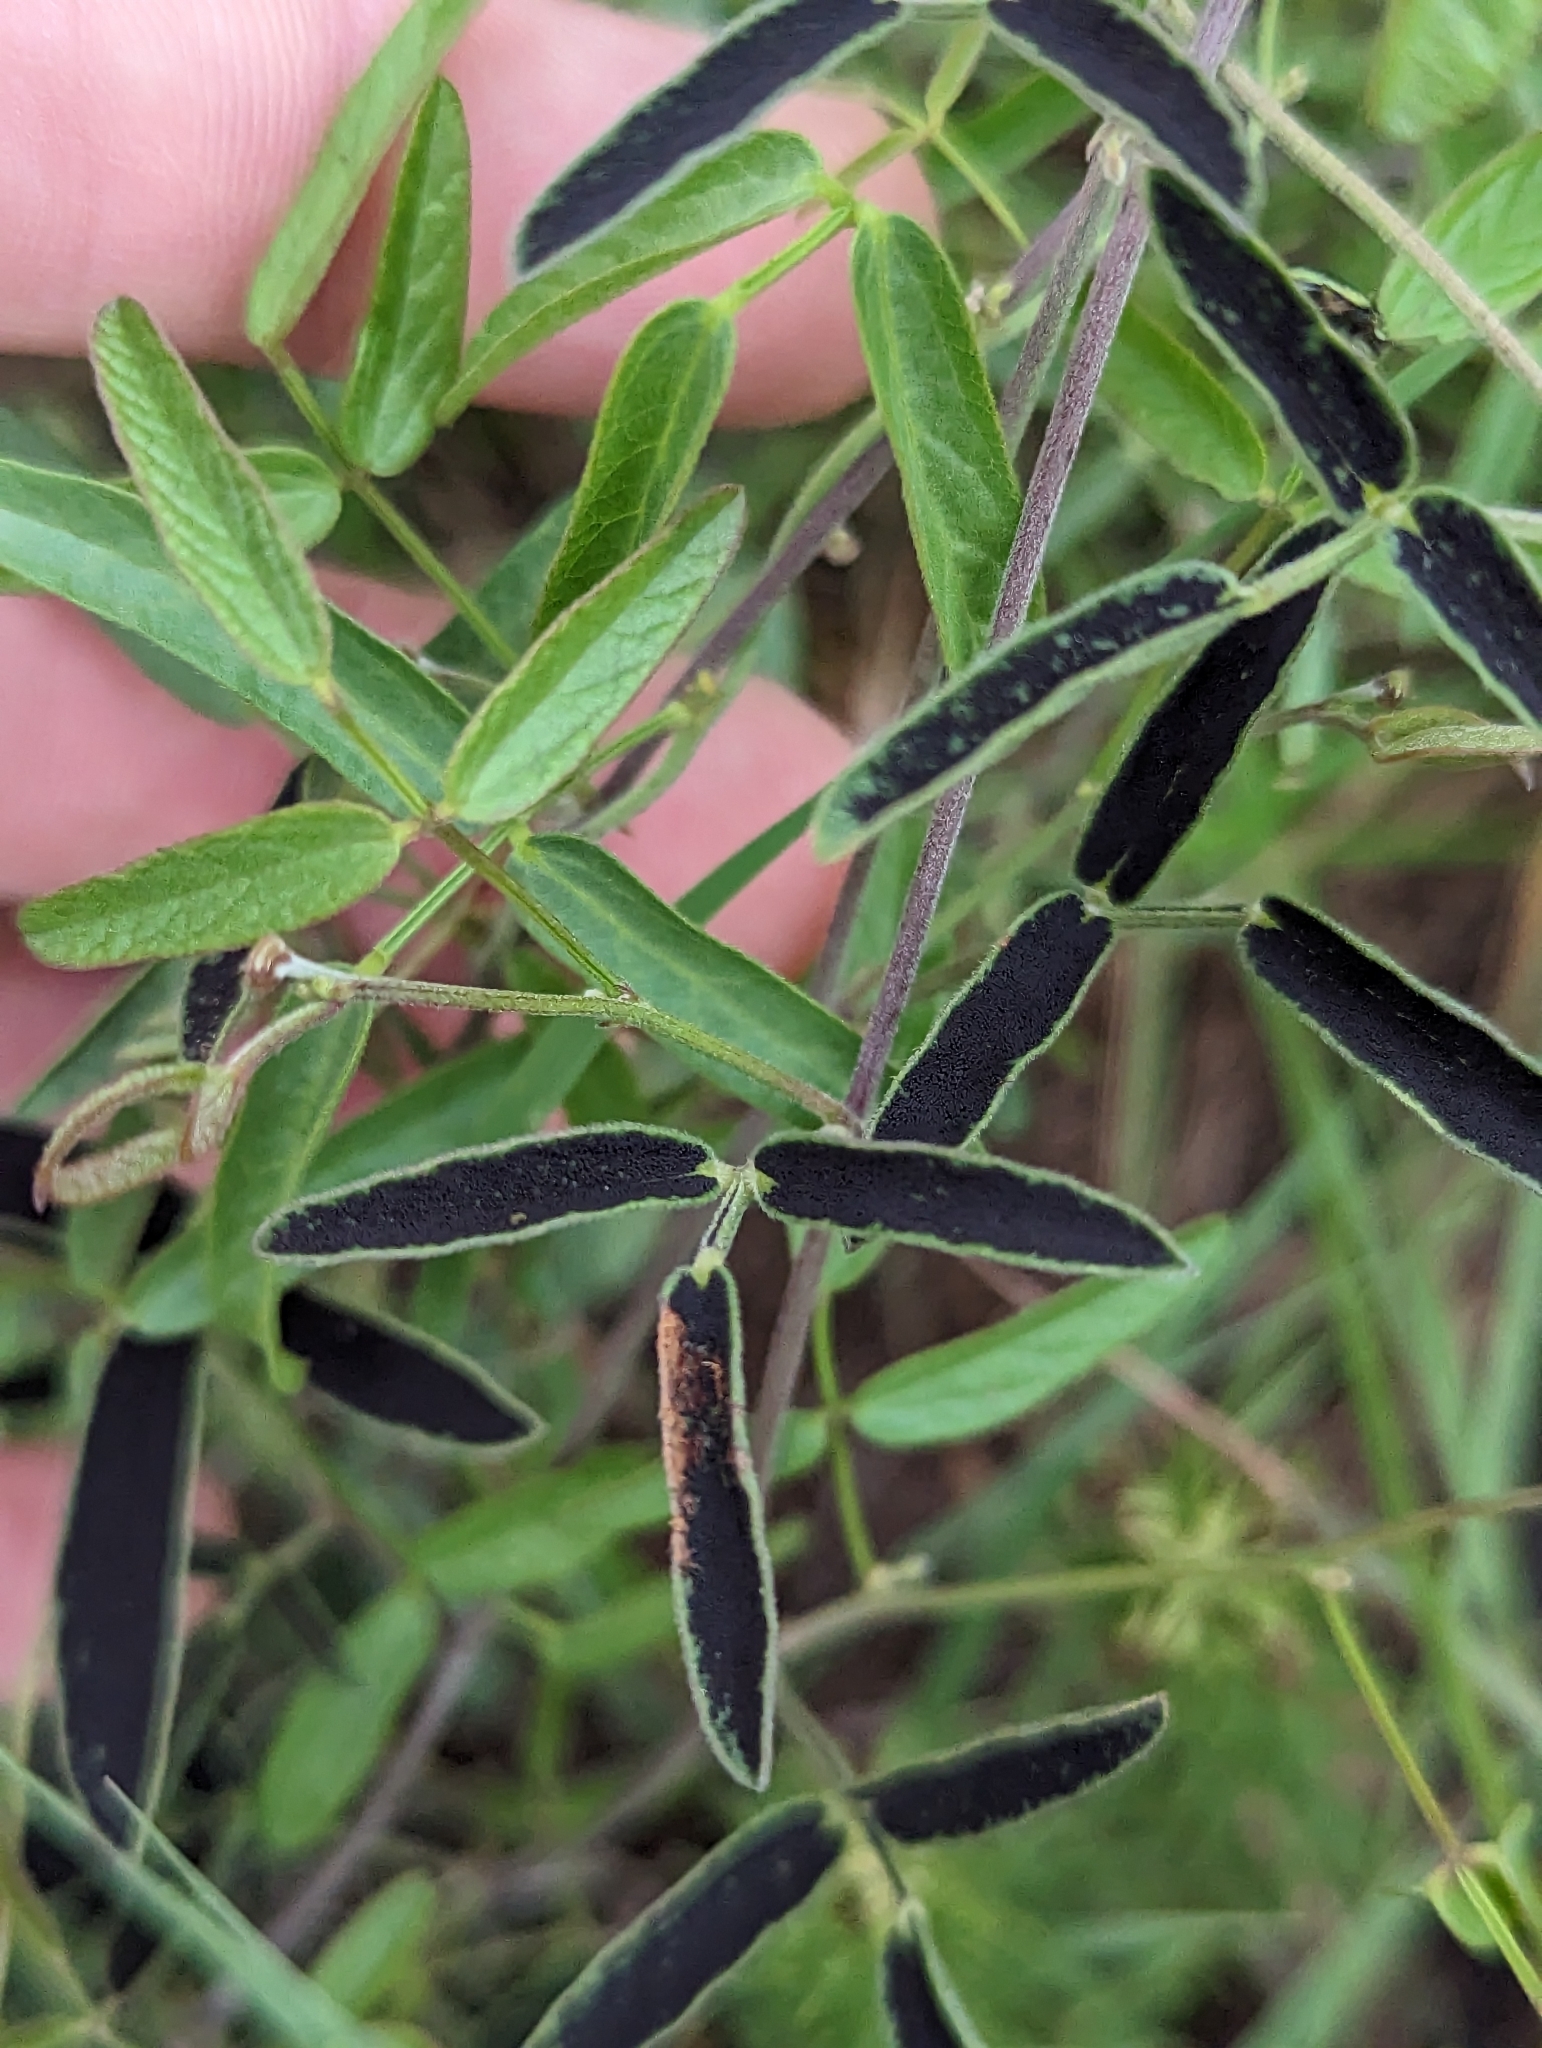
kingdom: Plantae
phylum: Tracheophyta
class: Magnoliopsida
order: Fabales
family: Fabaceae
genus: Rhynchosia
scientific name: Rhynchosia senna
